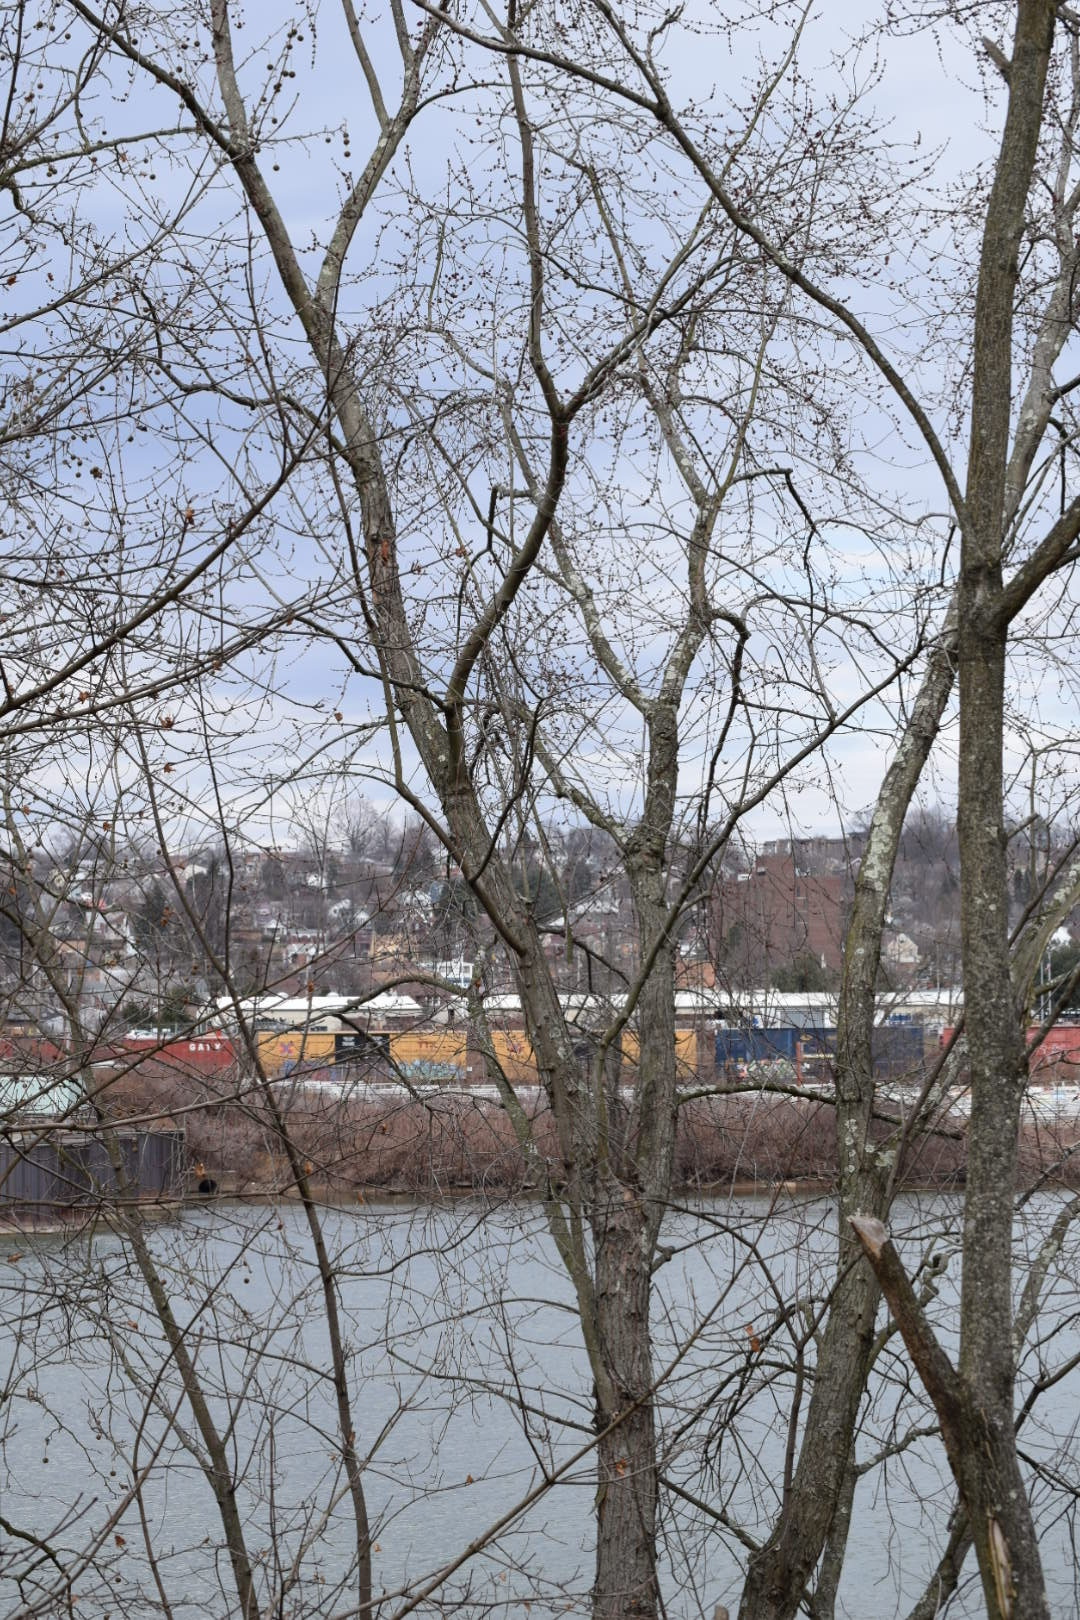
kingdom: Plantae
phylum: Tracheophyta
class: Magnoliopsida
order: Sapindales
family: Sapindaceae
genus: Acer
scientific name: Acer rubrum
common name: Red maple
